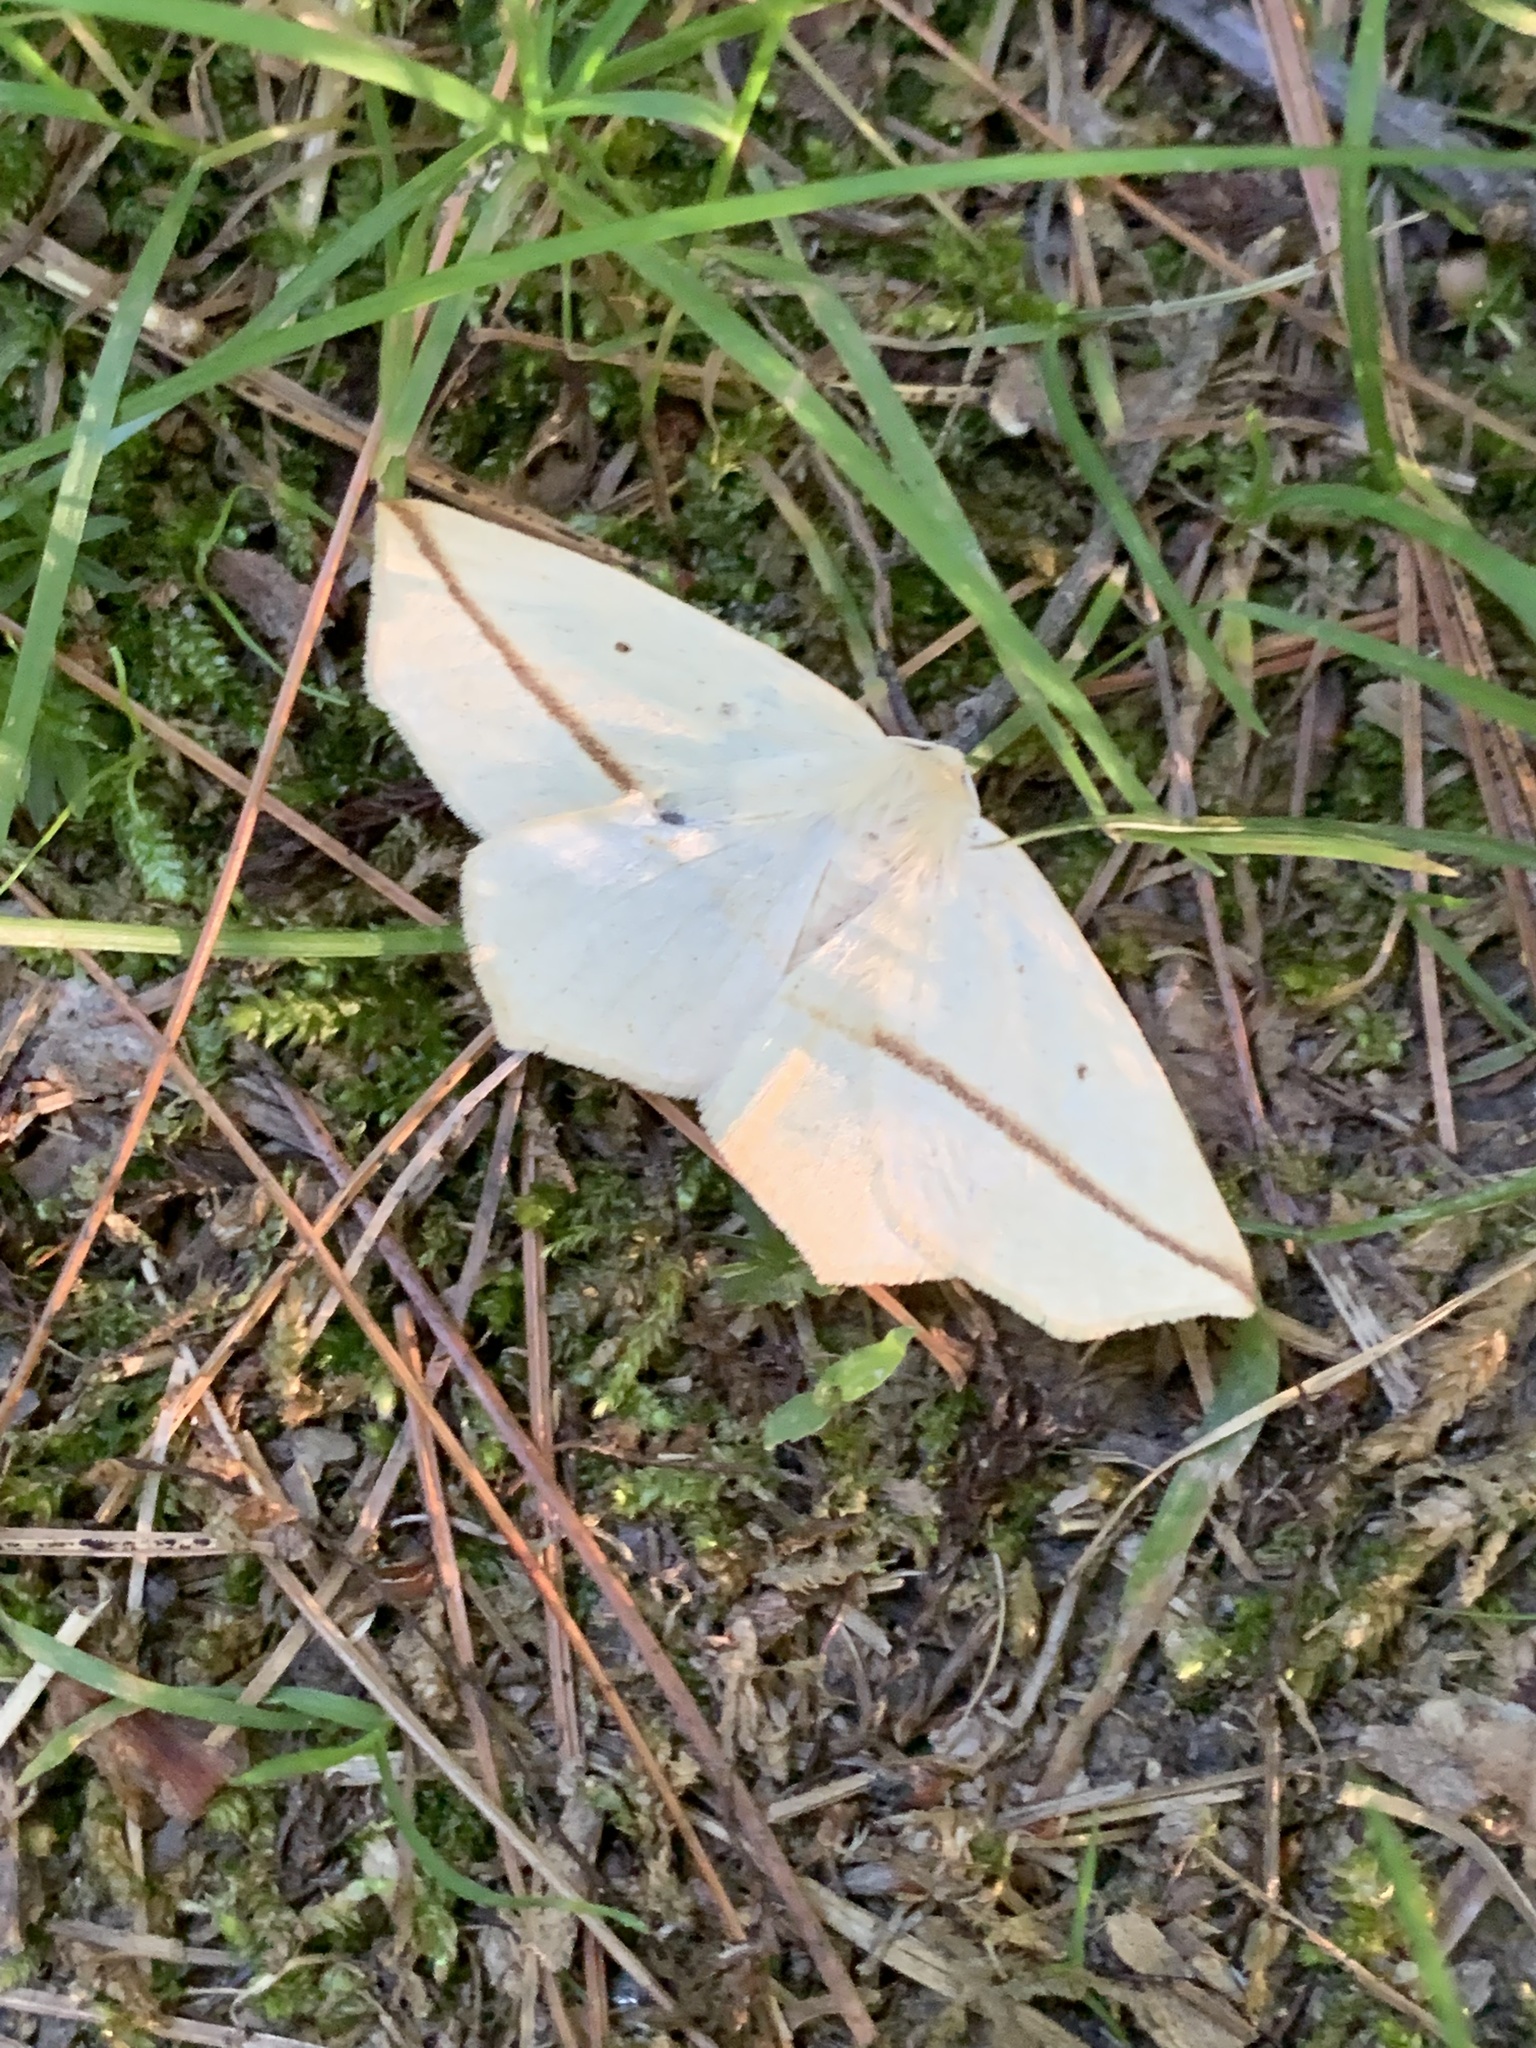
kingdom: Animalia
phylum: Arthropoda
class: Insecta
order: Lepidoptera
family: Geometridae
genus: Tetracis
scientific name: Tetracis crocallata
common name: Yellow slant-line
